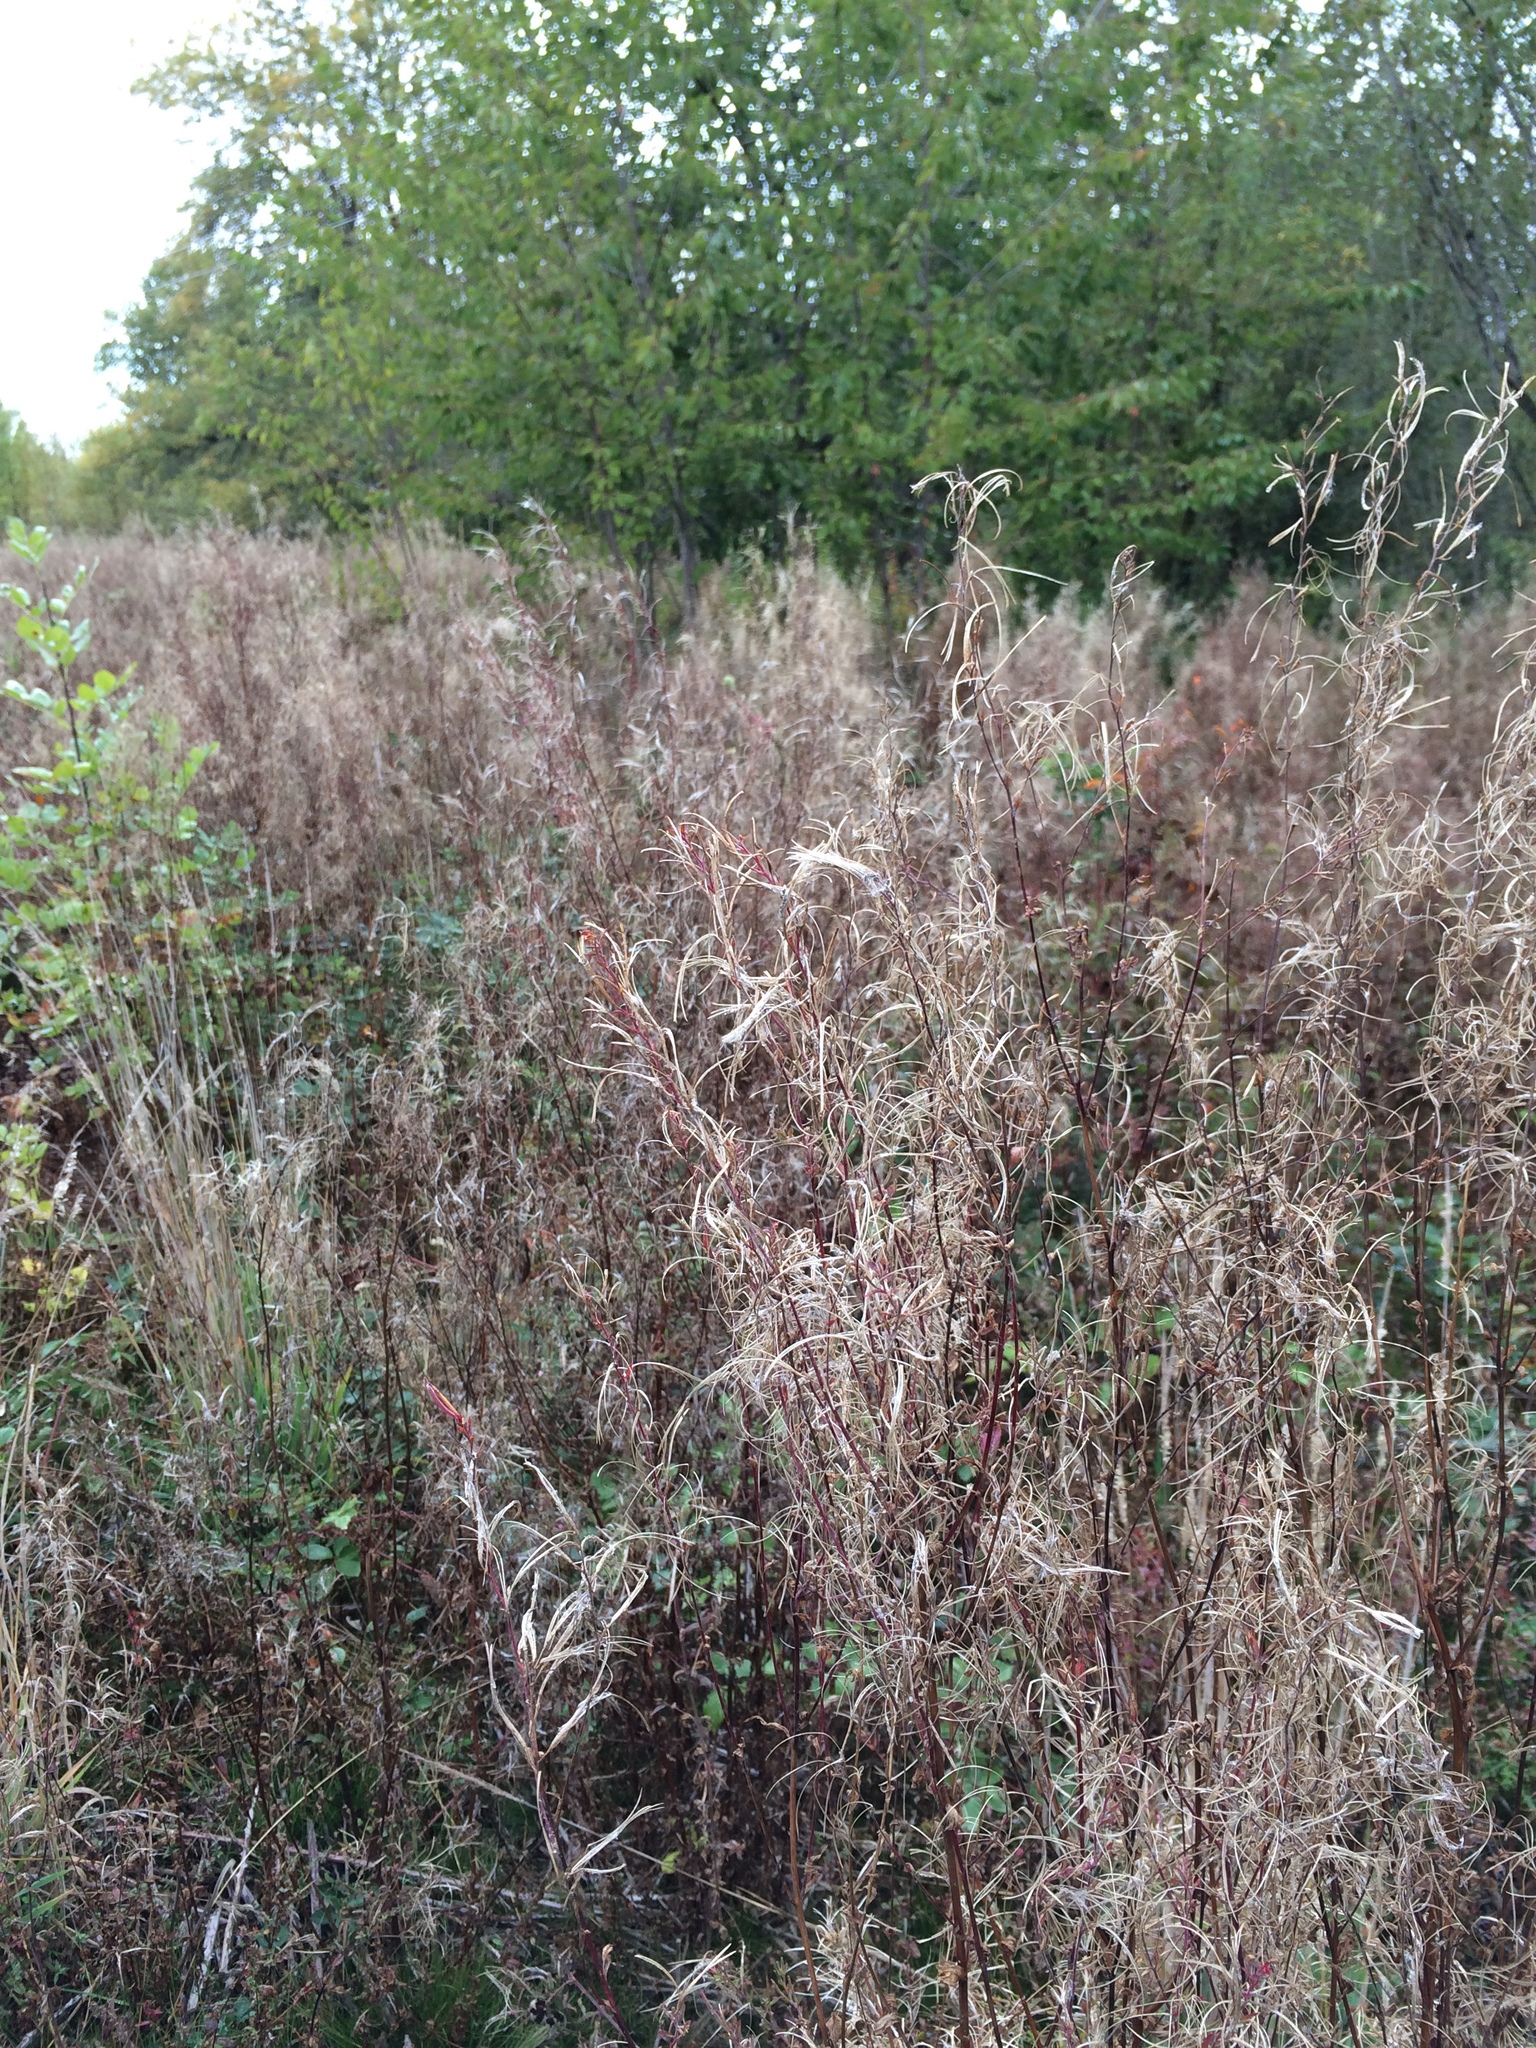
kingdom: Plantae
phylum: Tracheophyta
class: Magnoliopsida
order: Myrtales
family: Onagraceae
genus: Epilobium
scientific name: Epilobium ciliatum
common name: American willowherb
